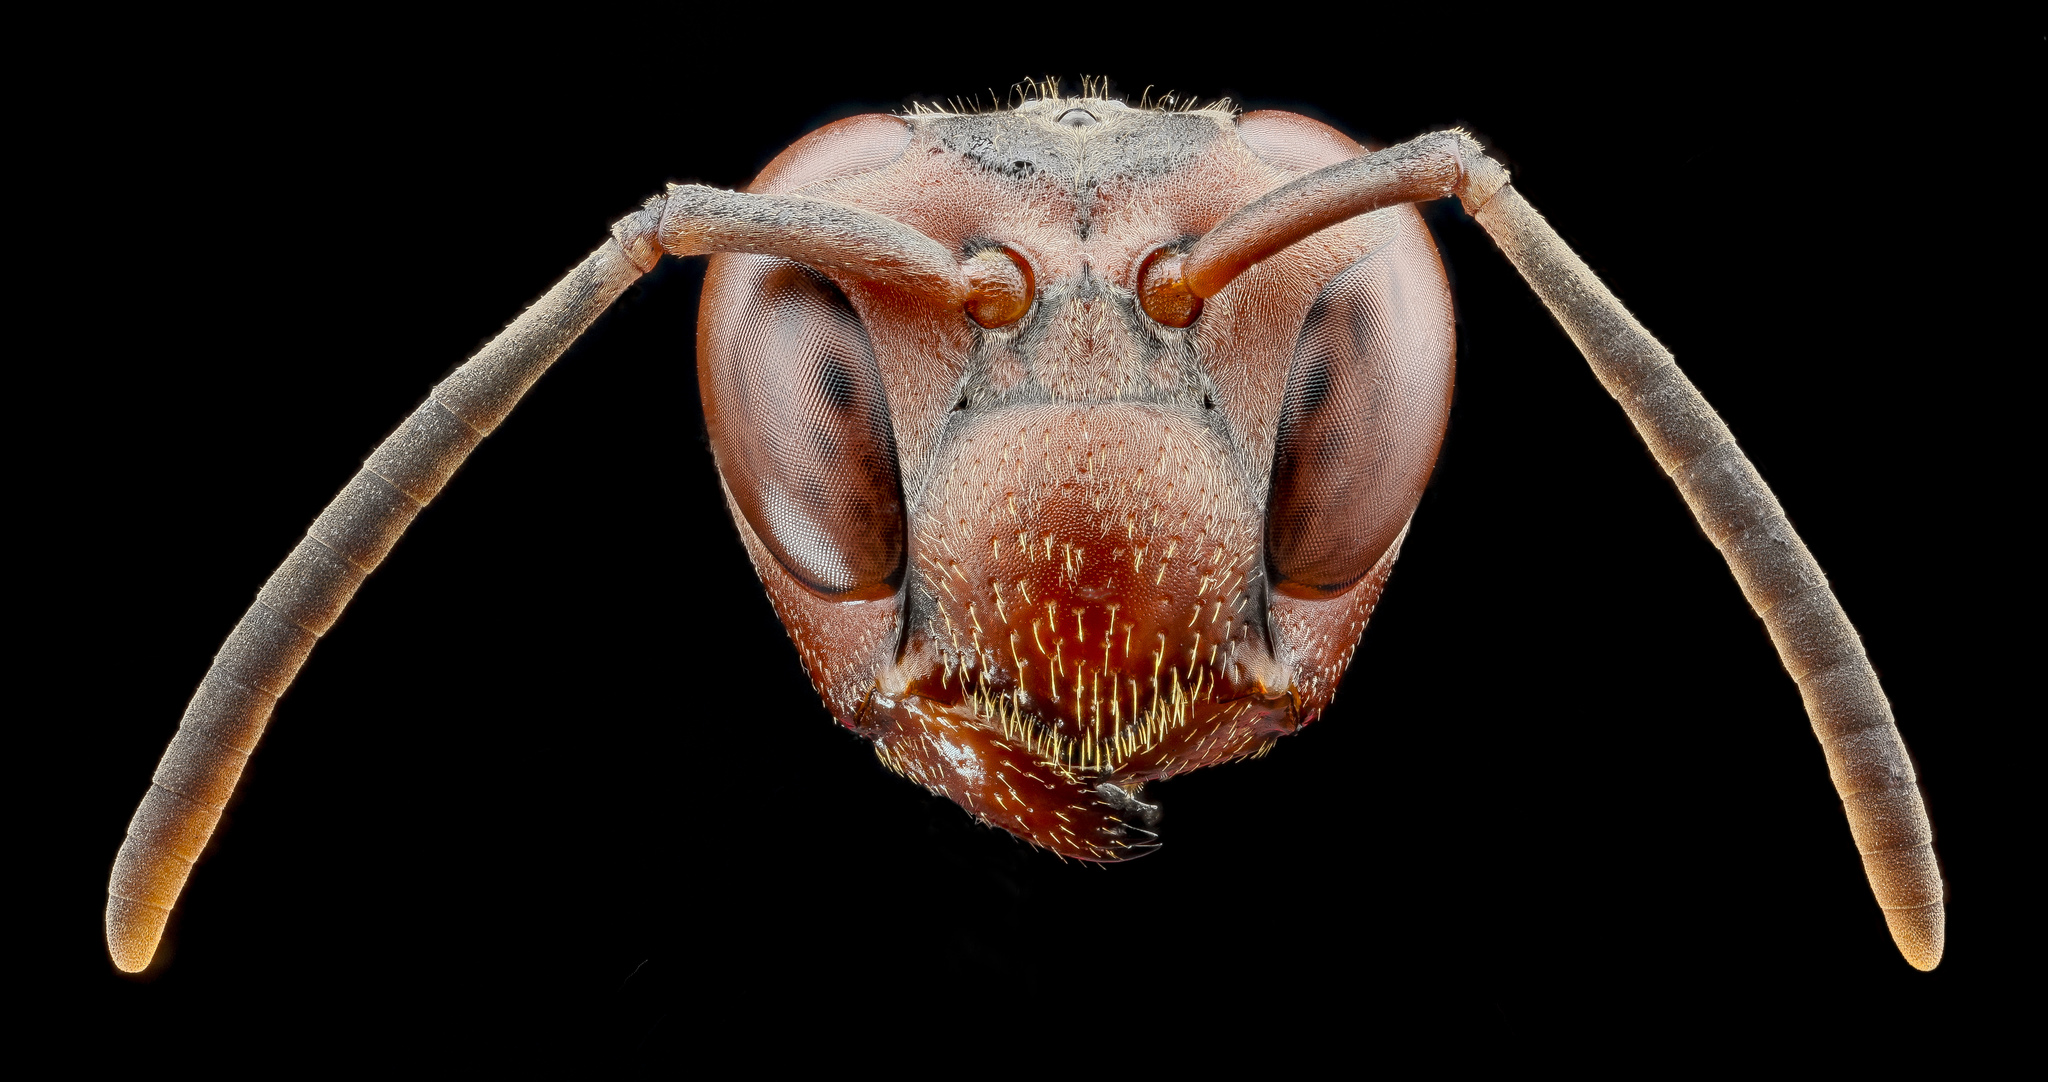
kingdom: Animalia
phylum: Arthropoda
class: Insecta
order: Hymenoptera
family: Eumenidae
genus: Polistes
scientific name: Polistes metricus
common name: Metric paper wasp
